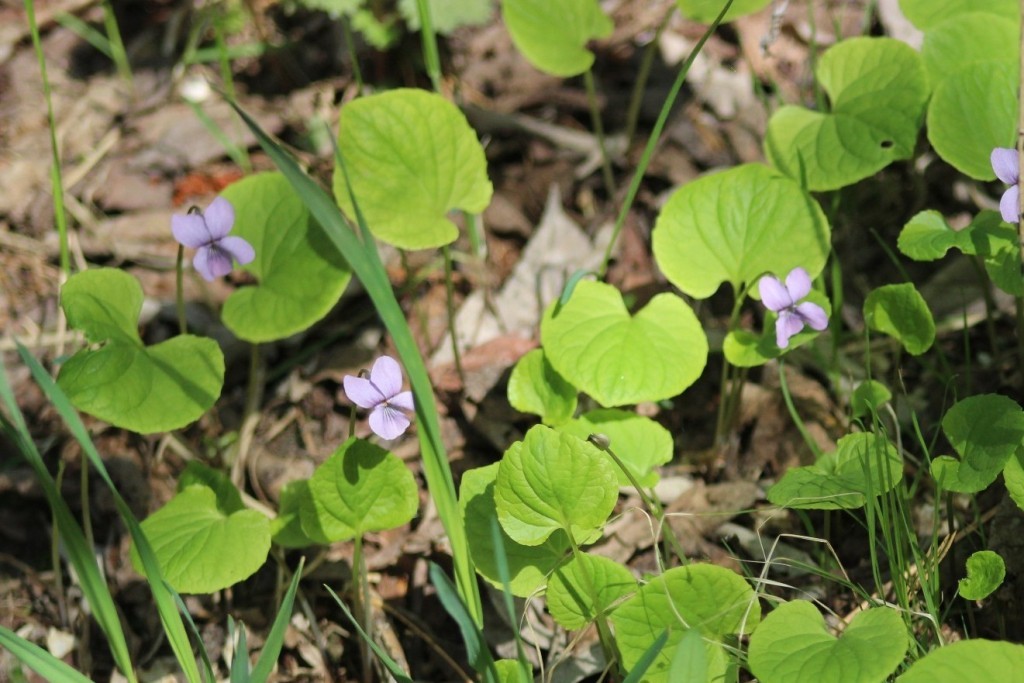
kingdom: Plantae
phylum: Tracheophyta
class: Magnoliopsida
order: Malpighiales
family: Violaceae
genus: Viola
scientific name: Viola epipsila
